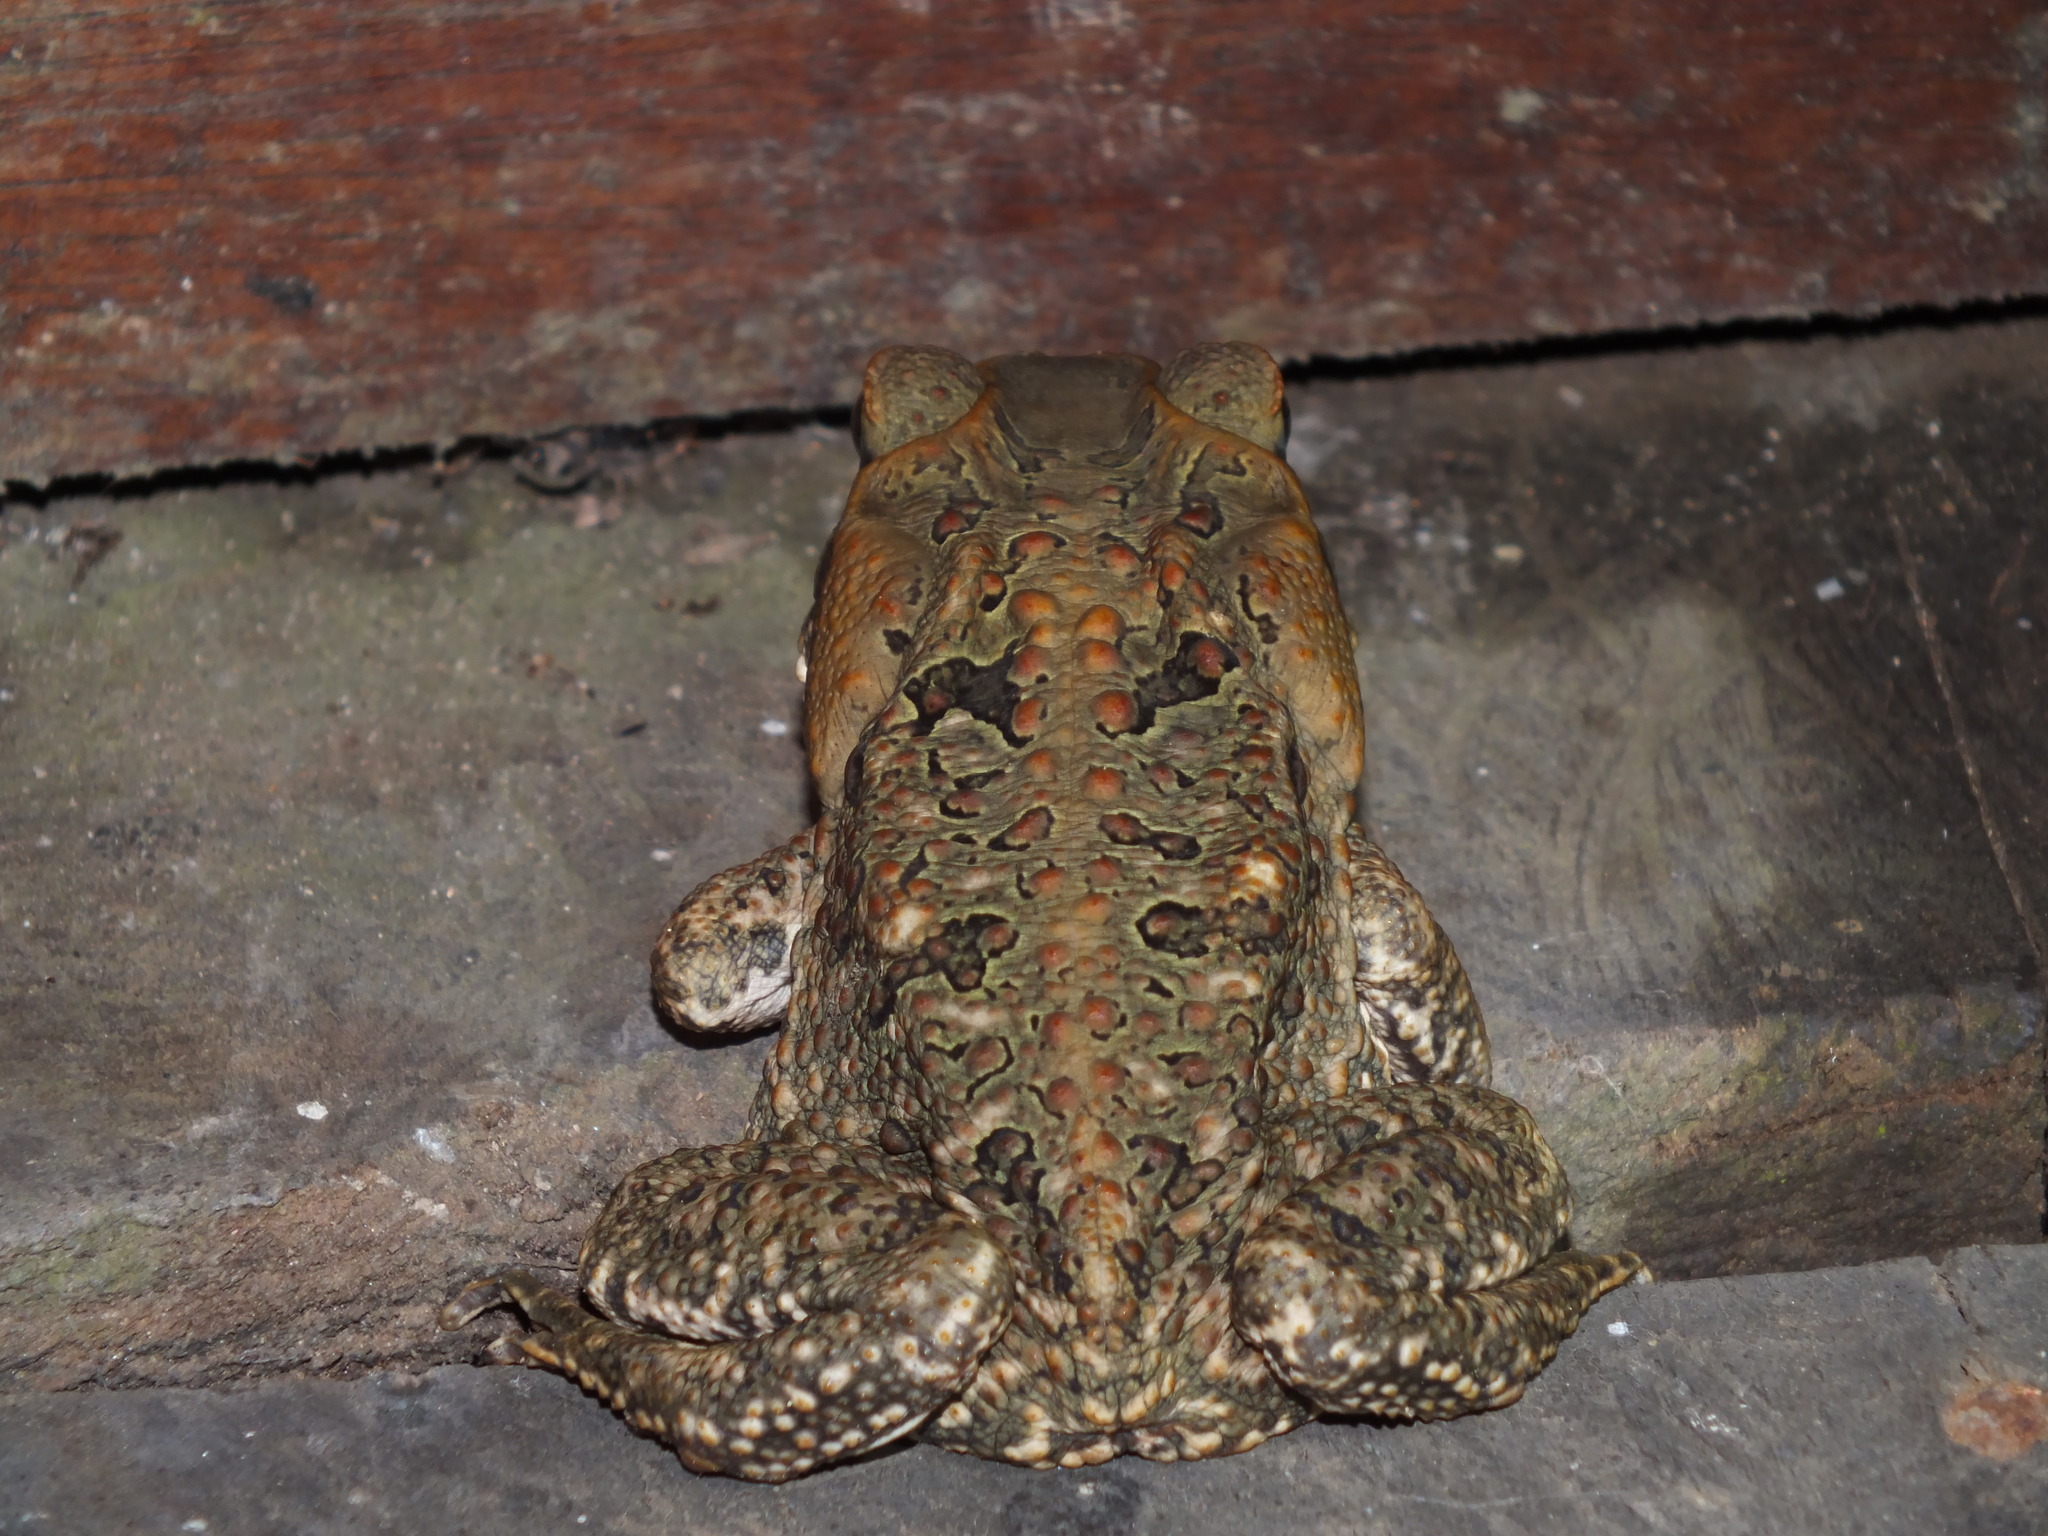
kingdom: Animalia
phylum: Chordata
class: Amphibia
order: Anura
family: Bufonidae
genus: Rhinella
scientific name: Rhinella marina
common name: Cane toad
